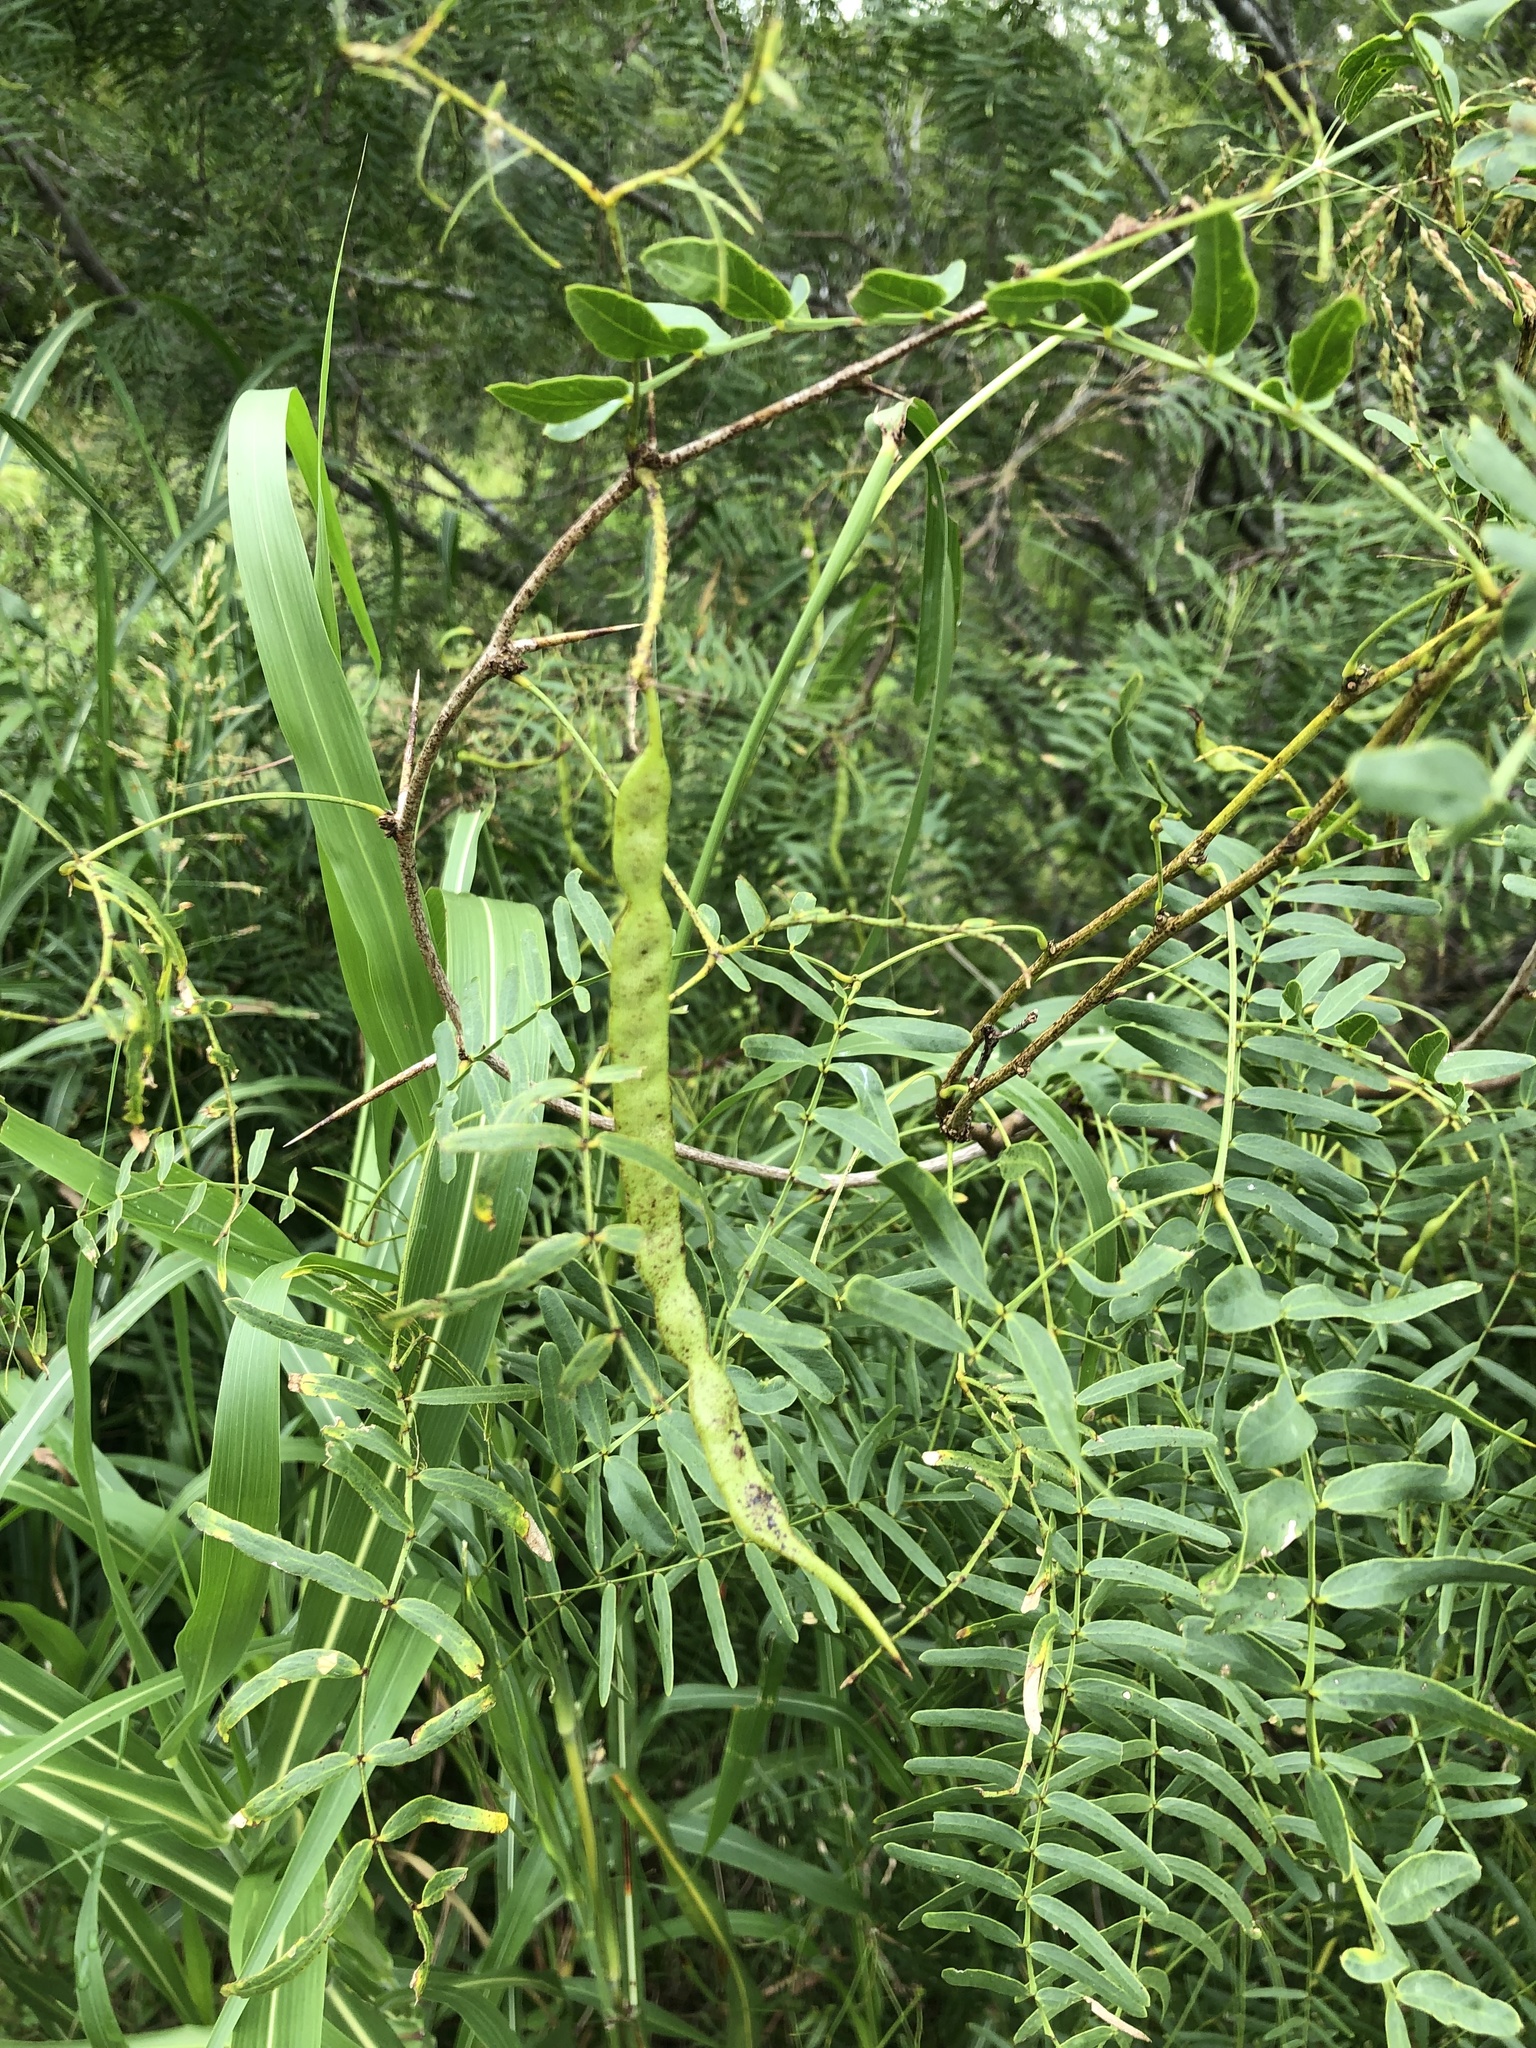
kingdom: Plantae
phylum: Tracheophyta
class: Magnoliopsida
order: Fabales
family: Fabaceae
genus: Prosopis
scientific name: Prosopis glandulosa
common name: Honey mesquite
